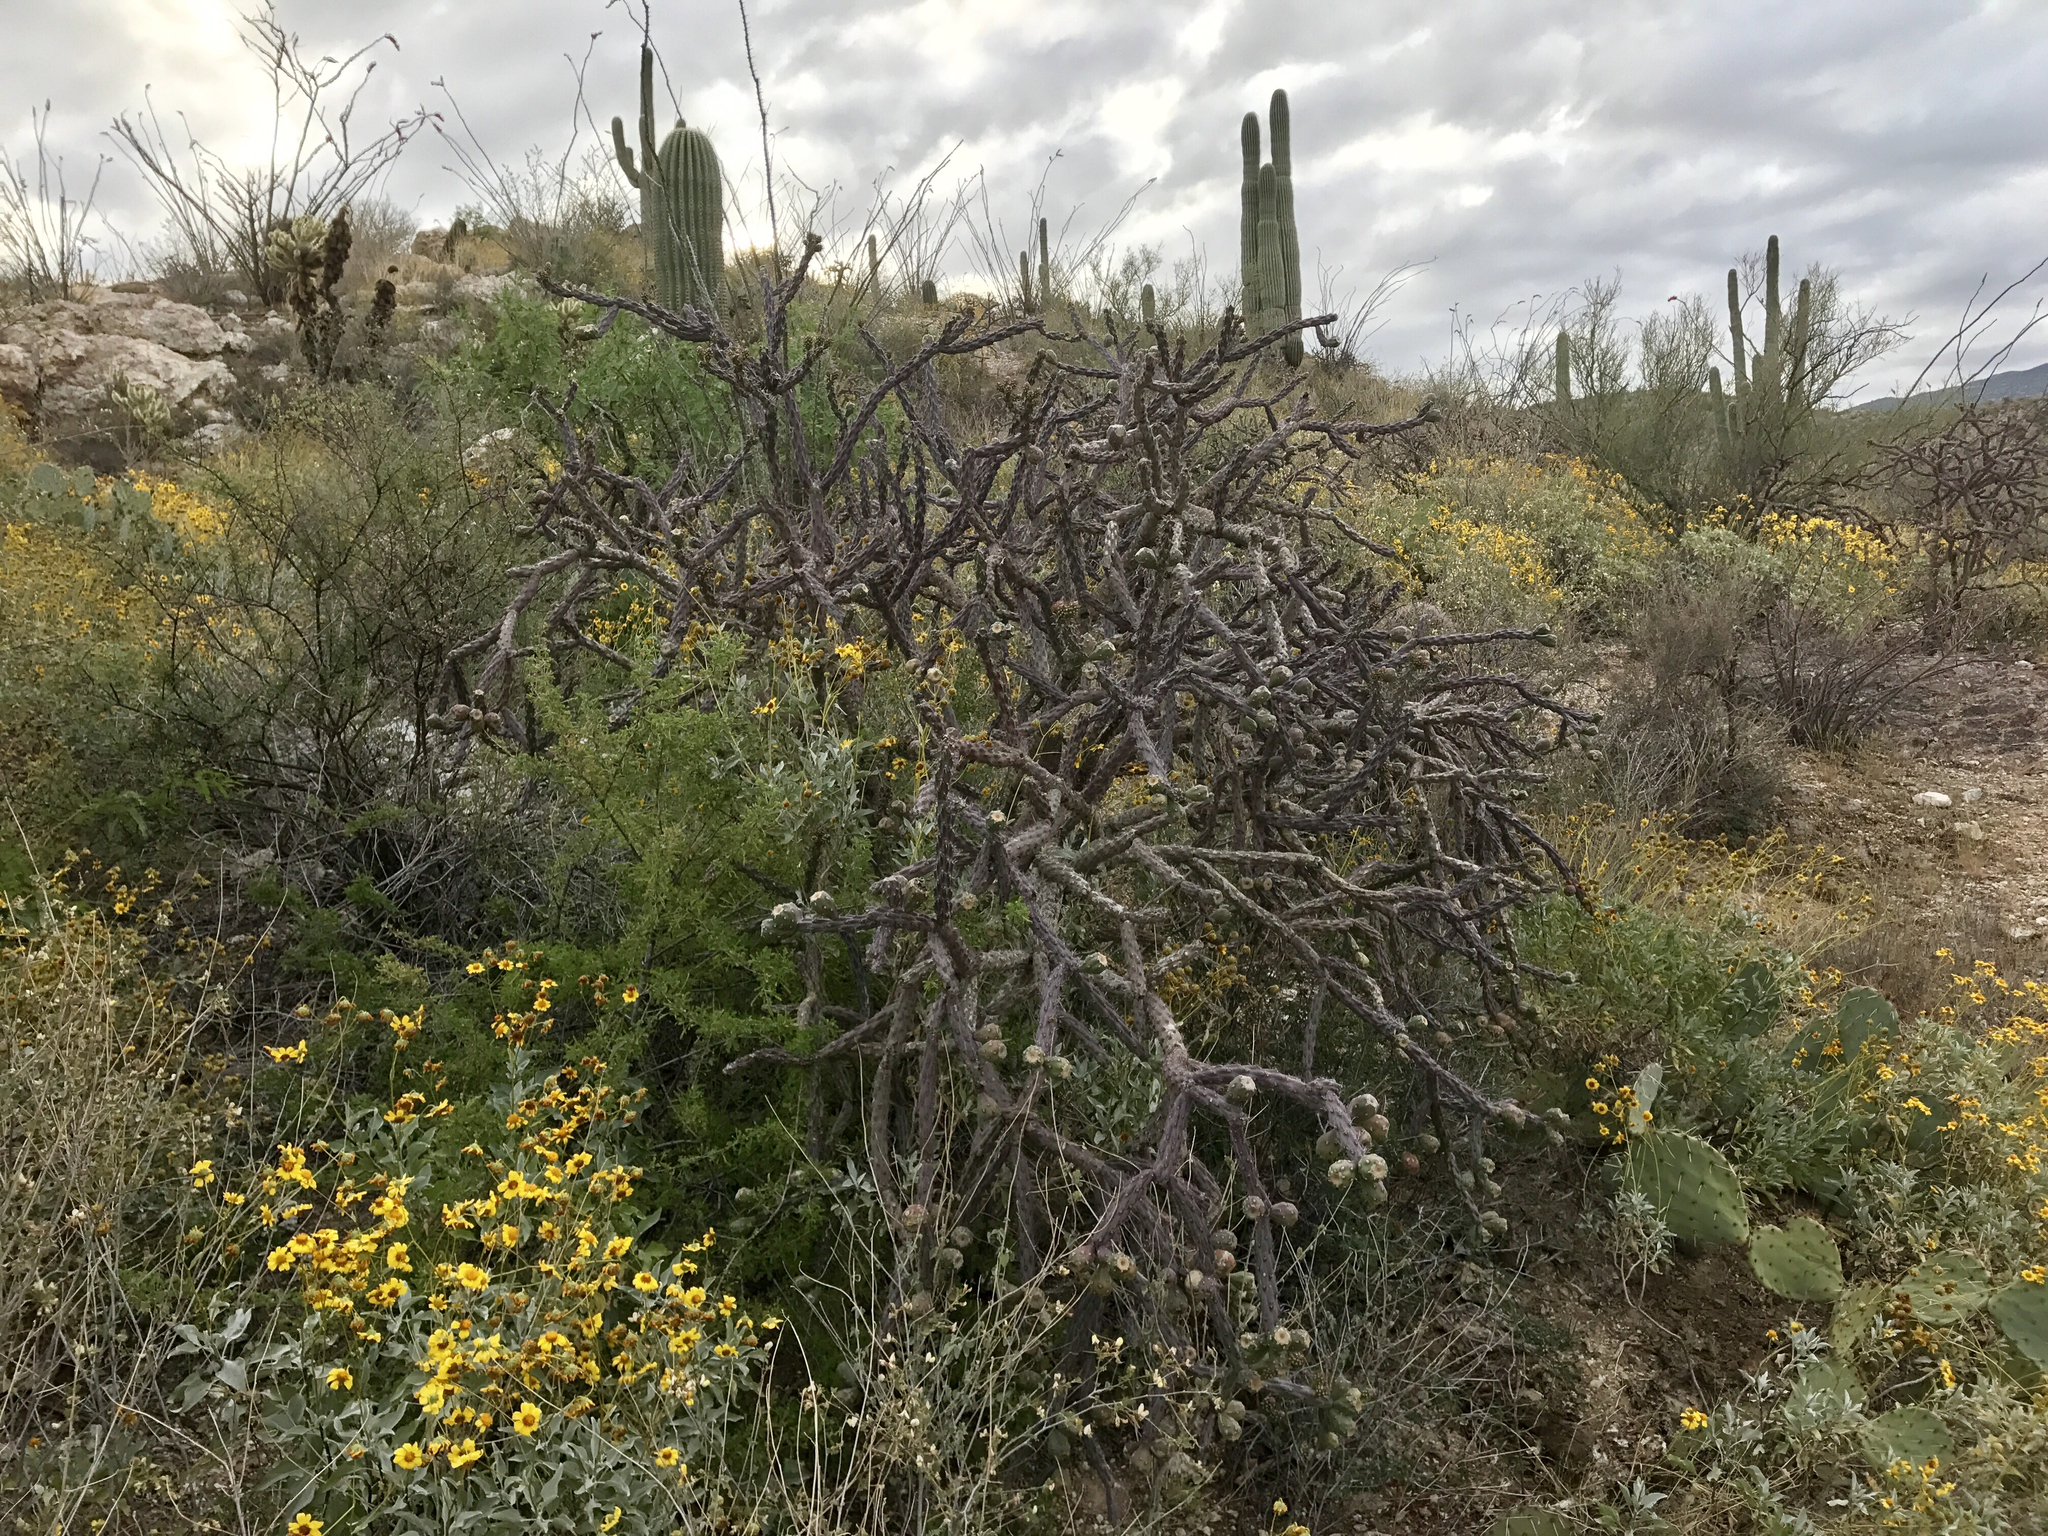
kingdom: Plantae
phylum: Tracheophyta
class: Magnoliopsida
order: Caryophyllales
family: Cactaceae
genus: Cylindropuntia
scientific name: Cylindropuntia thurberi
